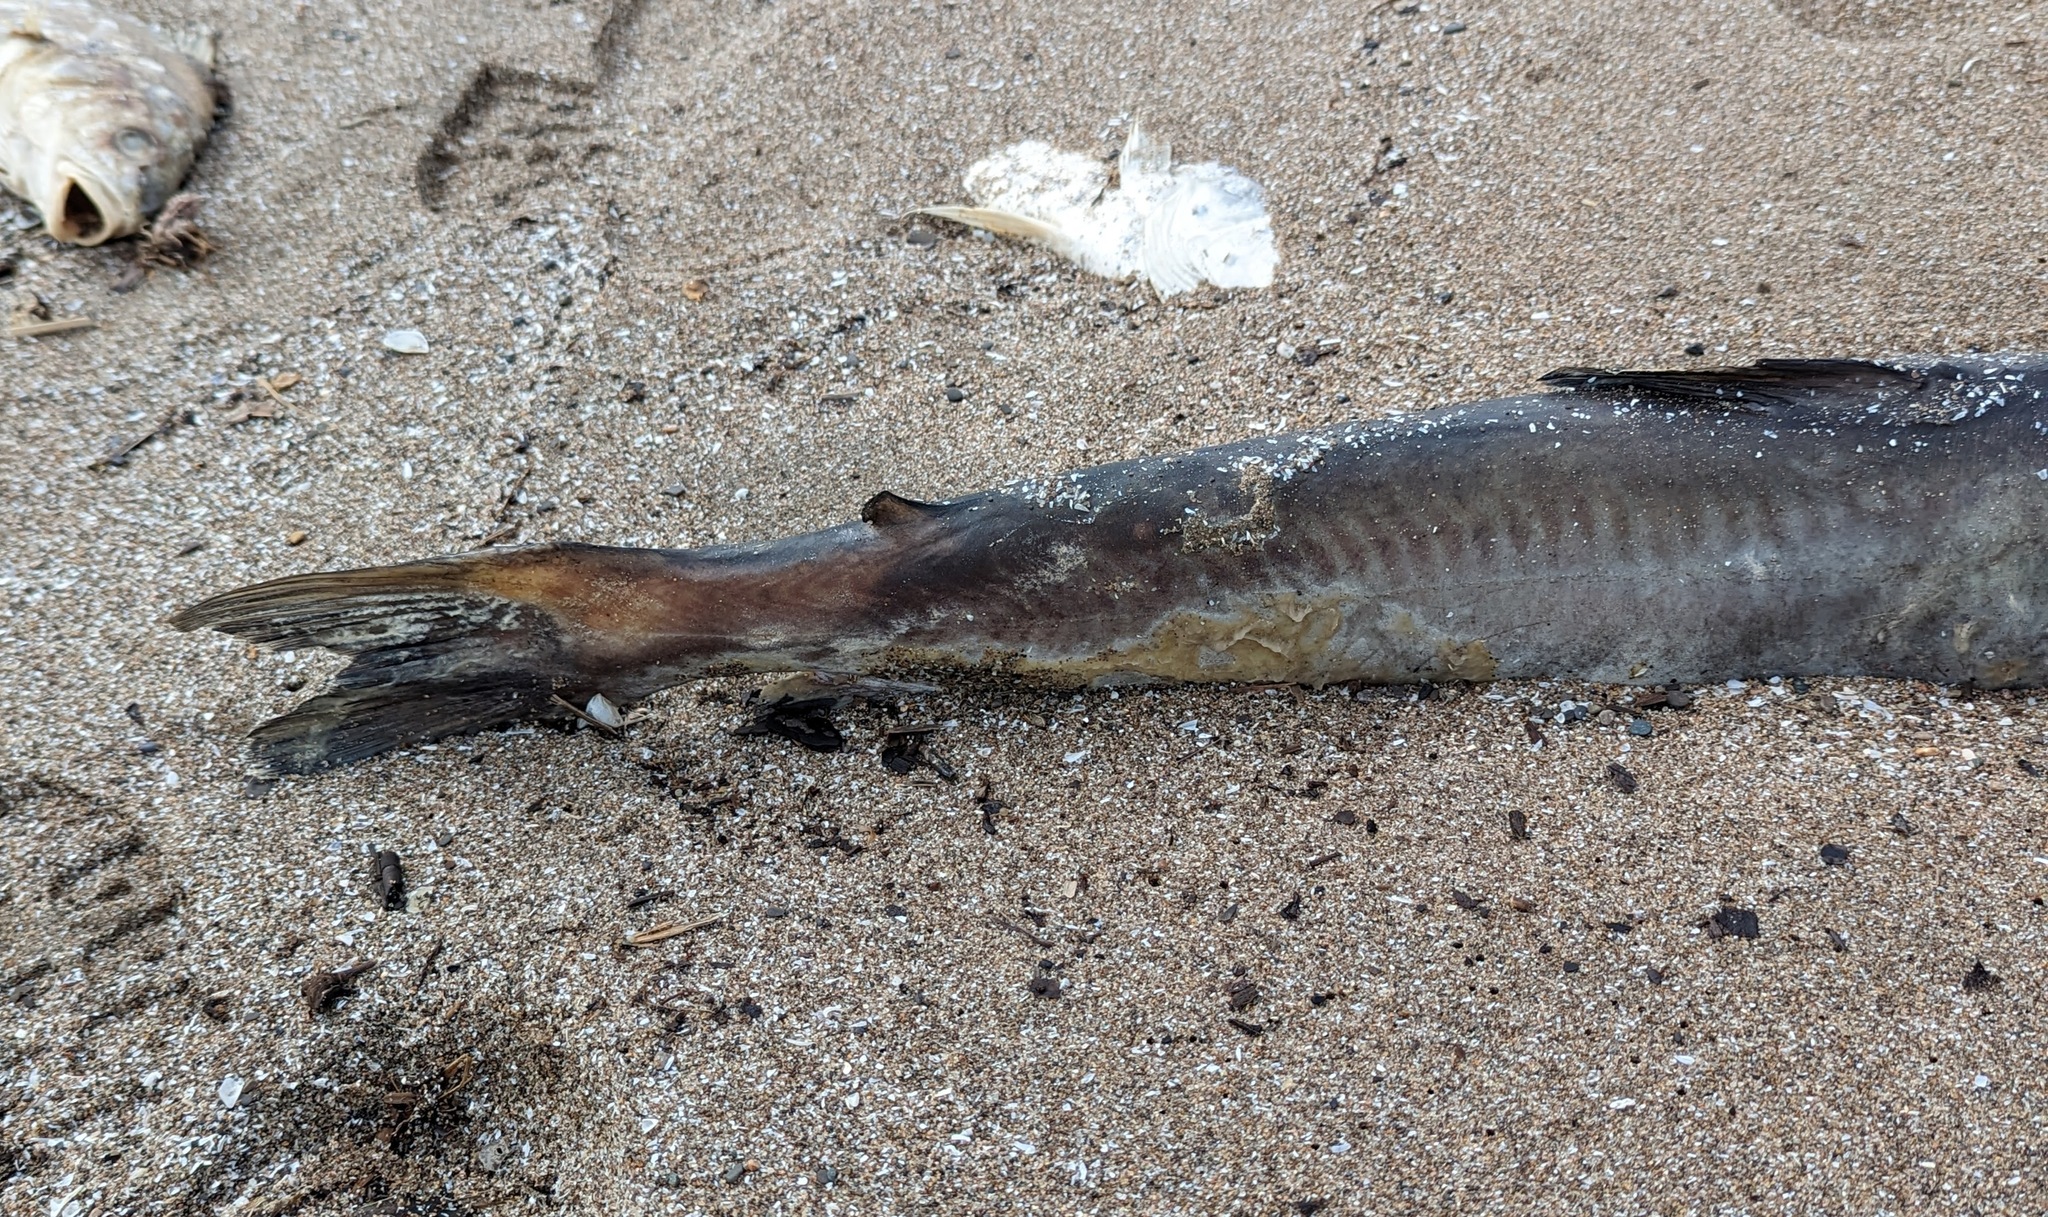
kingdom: Animalia
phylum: Chordata
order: Siluriformes
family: Ictaluridae
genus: Ictalurus
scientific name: Ictalurus punctatus
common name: Channel catfish
